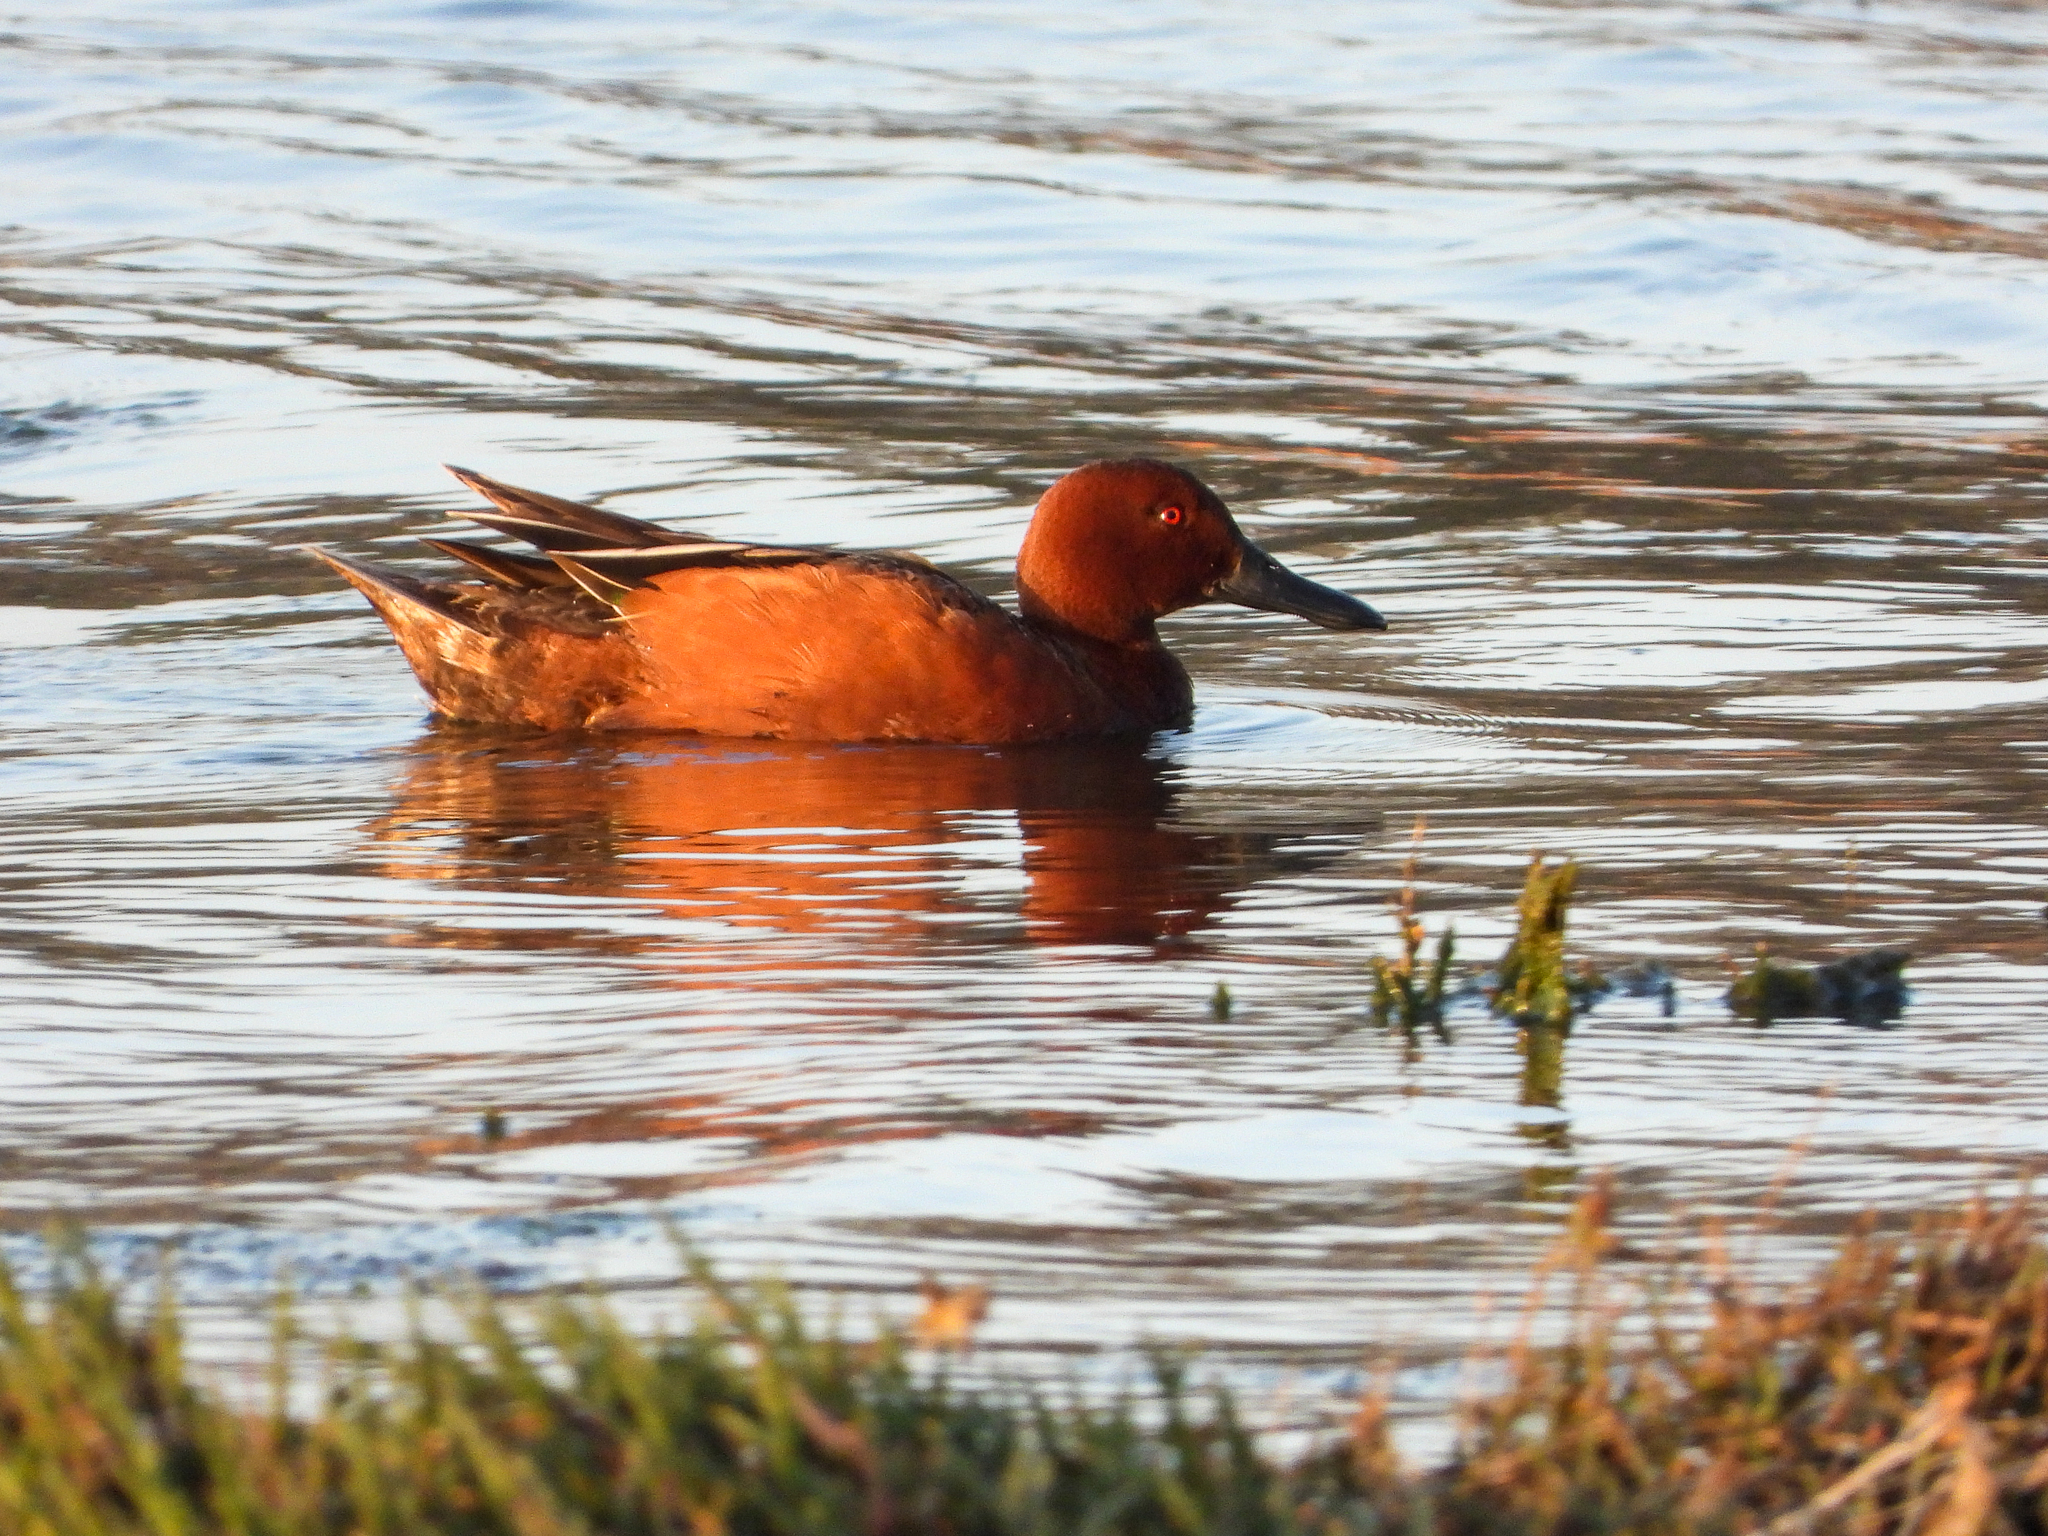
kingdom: Animalia
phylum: Chordata
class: Aves
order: Anseriformes
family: Anatidae
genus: Spatula
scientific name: Spatula cyanoptera
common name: Cinnamon teal
